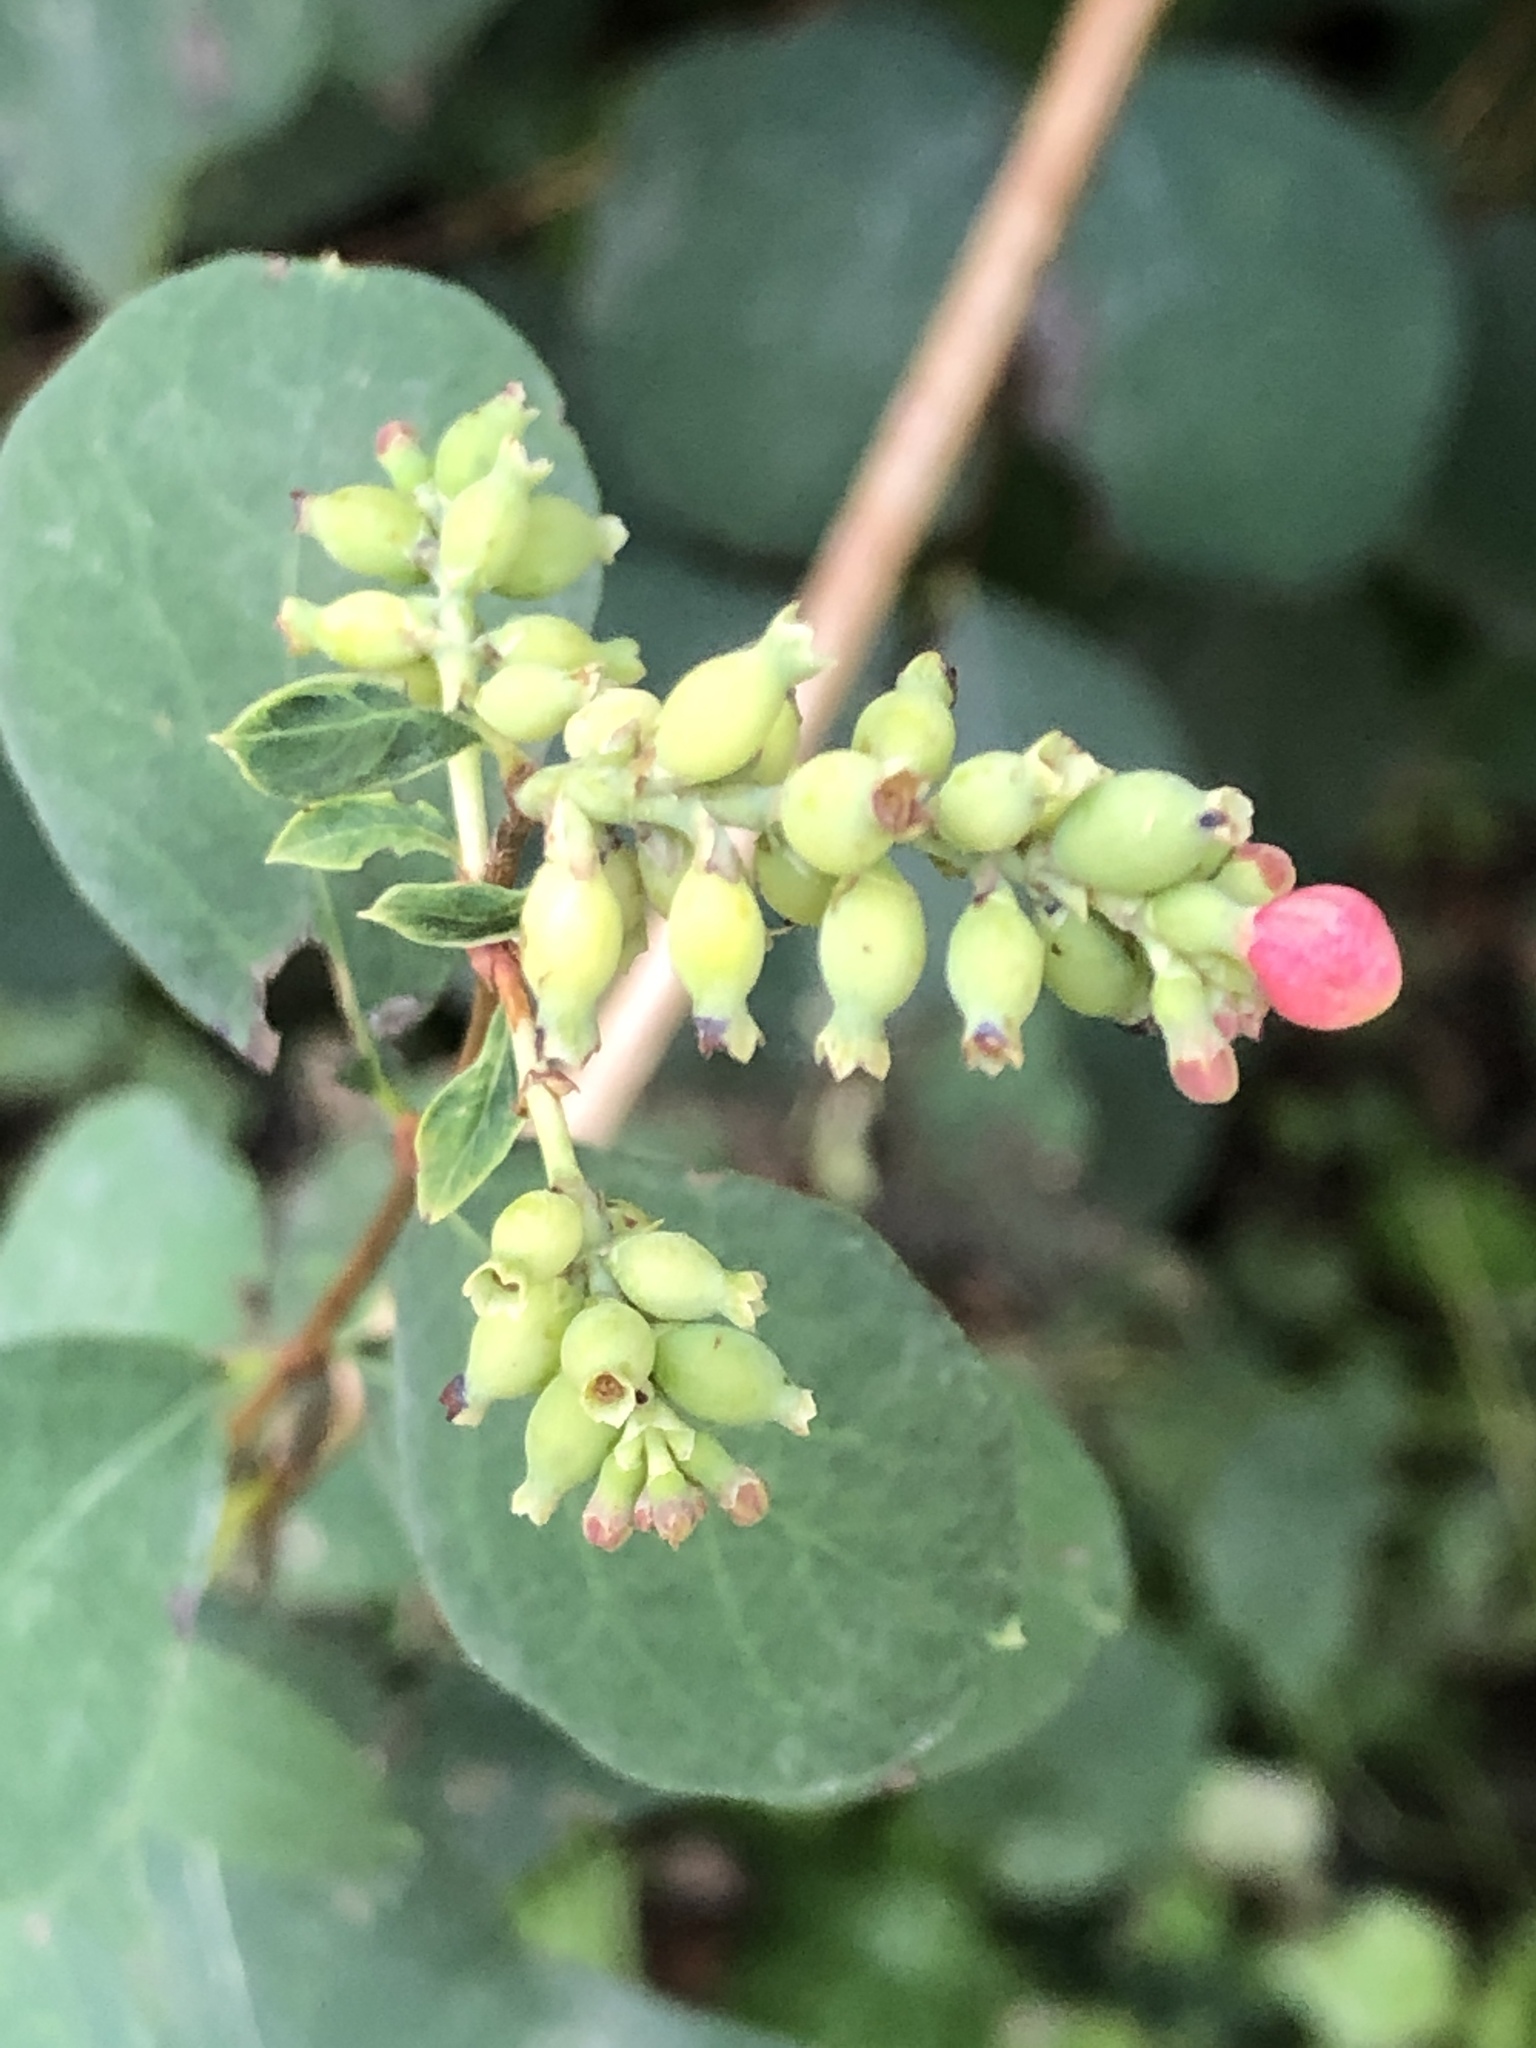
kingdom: Plantae
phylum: Tracheophyta
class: Magnoliopsida
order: Dipsacales
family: Caprifoliaceae
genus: Symphoricarpos
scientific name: Symphoricarpos albus
